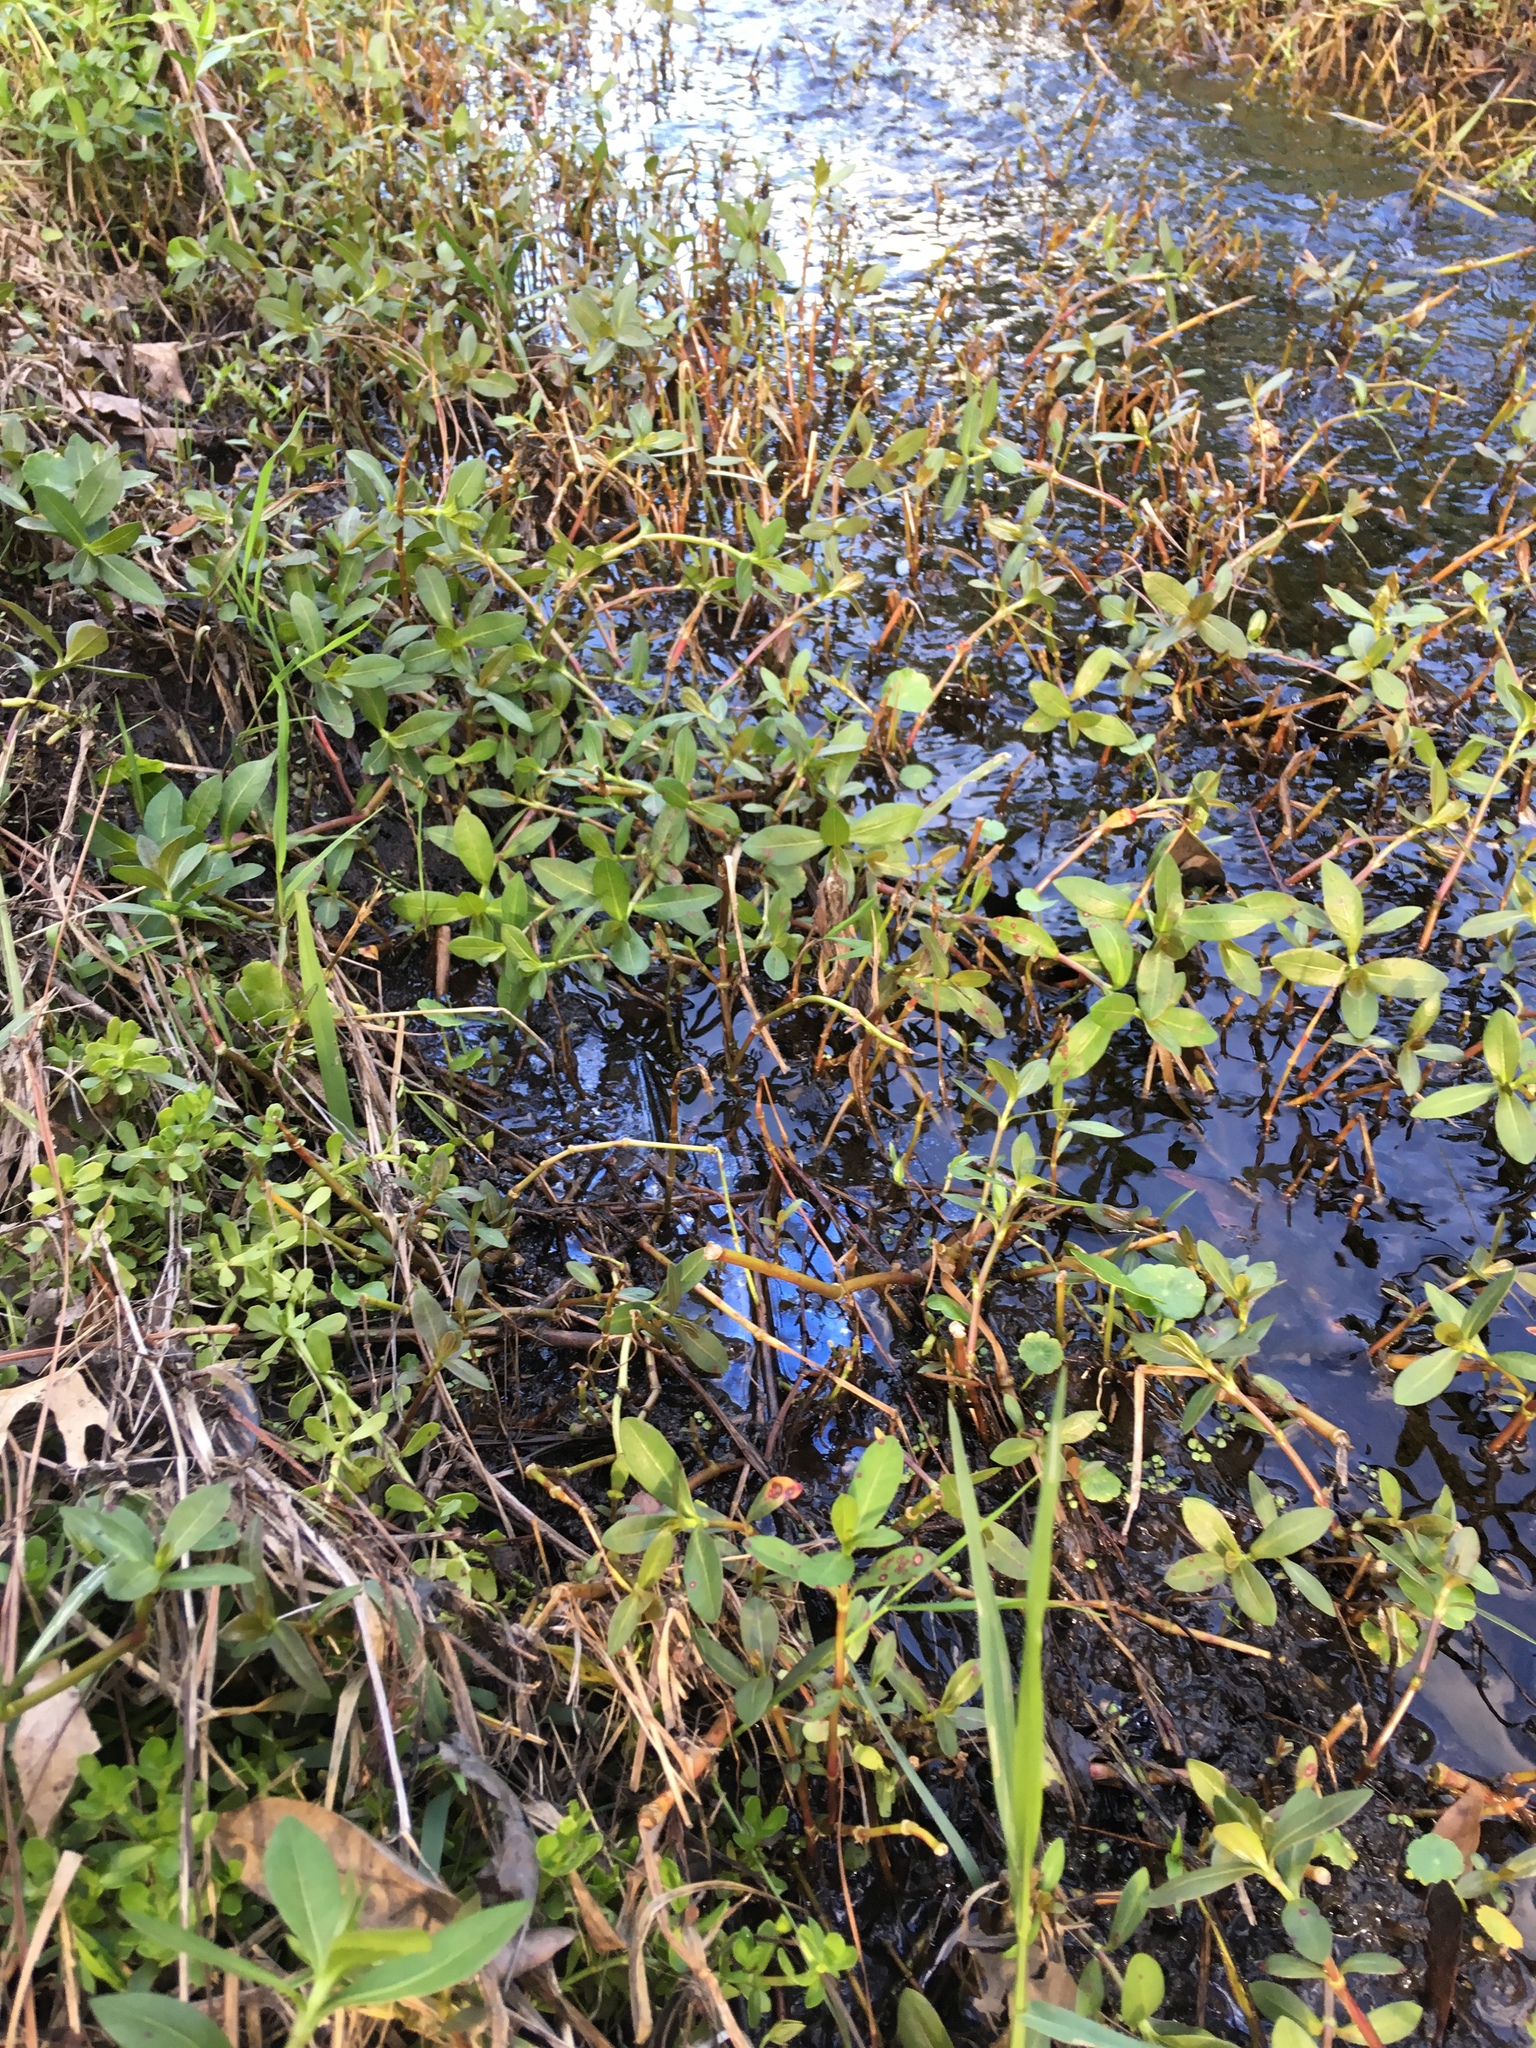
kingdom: Plantae
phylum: Tracheophyta
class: Magnoliopsida
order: Caryophyllales
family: Amaranthaceae
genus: Alternanthera
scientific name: Alternanthera philoxeroides
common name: Alligatorweed
